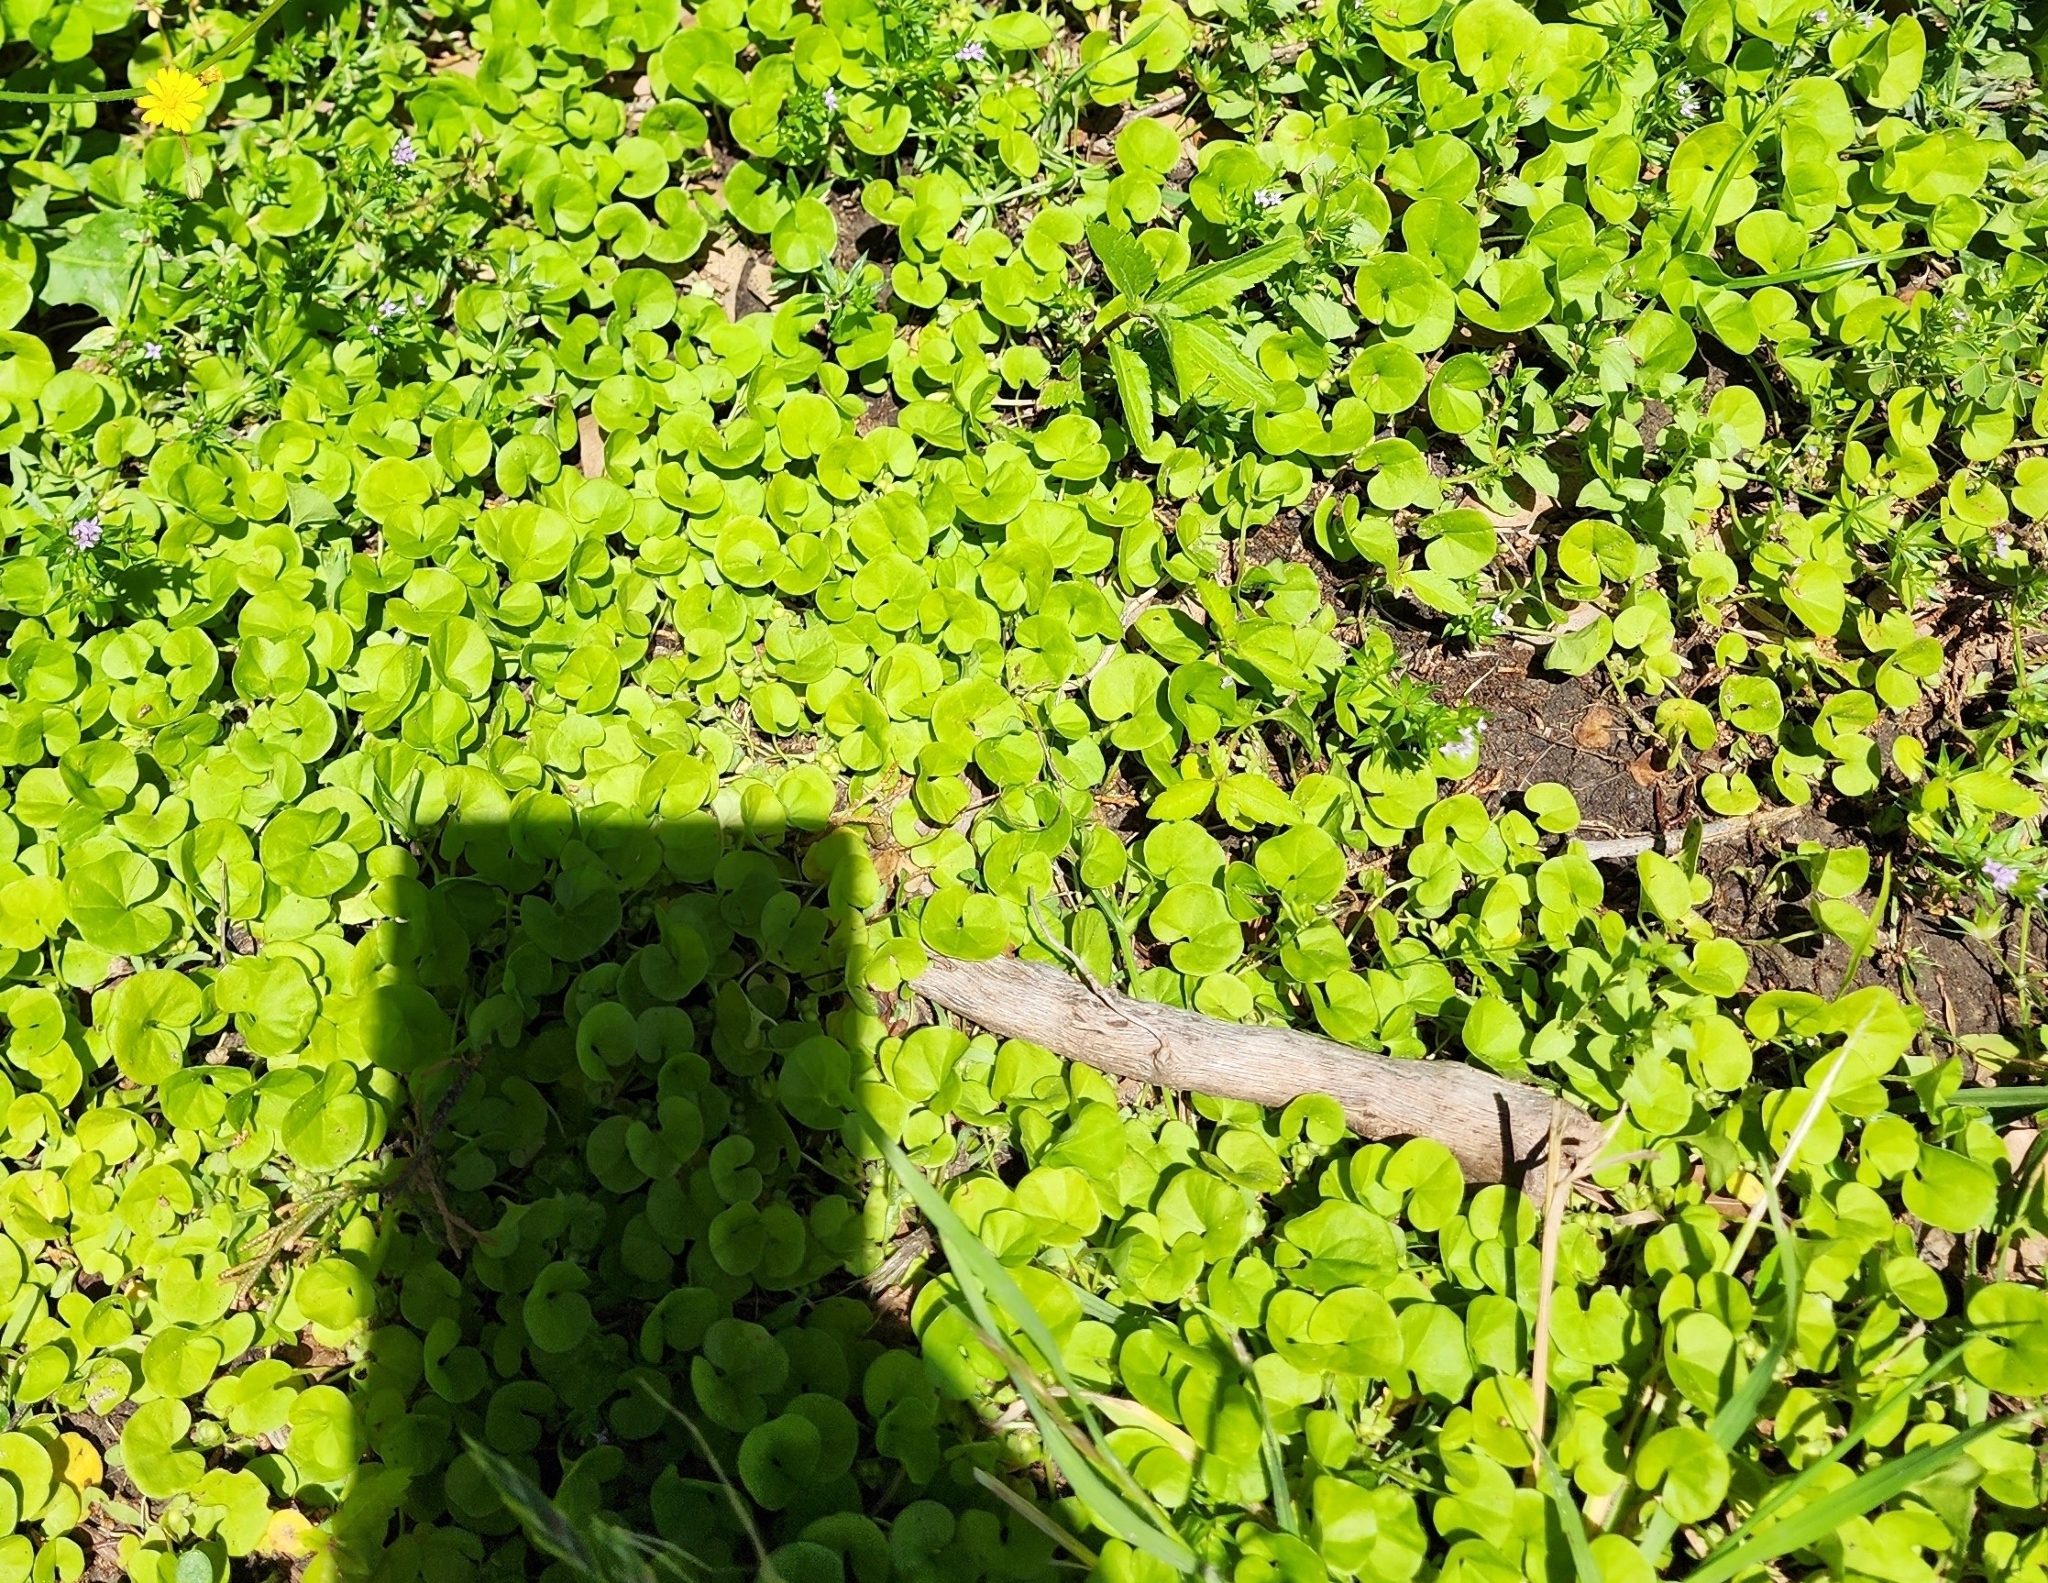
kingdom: Plantae
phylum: Tracheophyta
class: Magnoliopsida
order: Solanales
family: Convolvulaceae
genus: Dichondra
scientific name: Dichondra carolinensis
